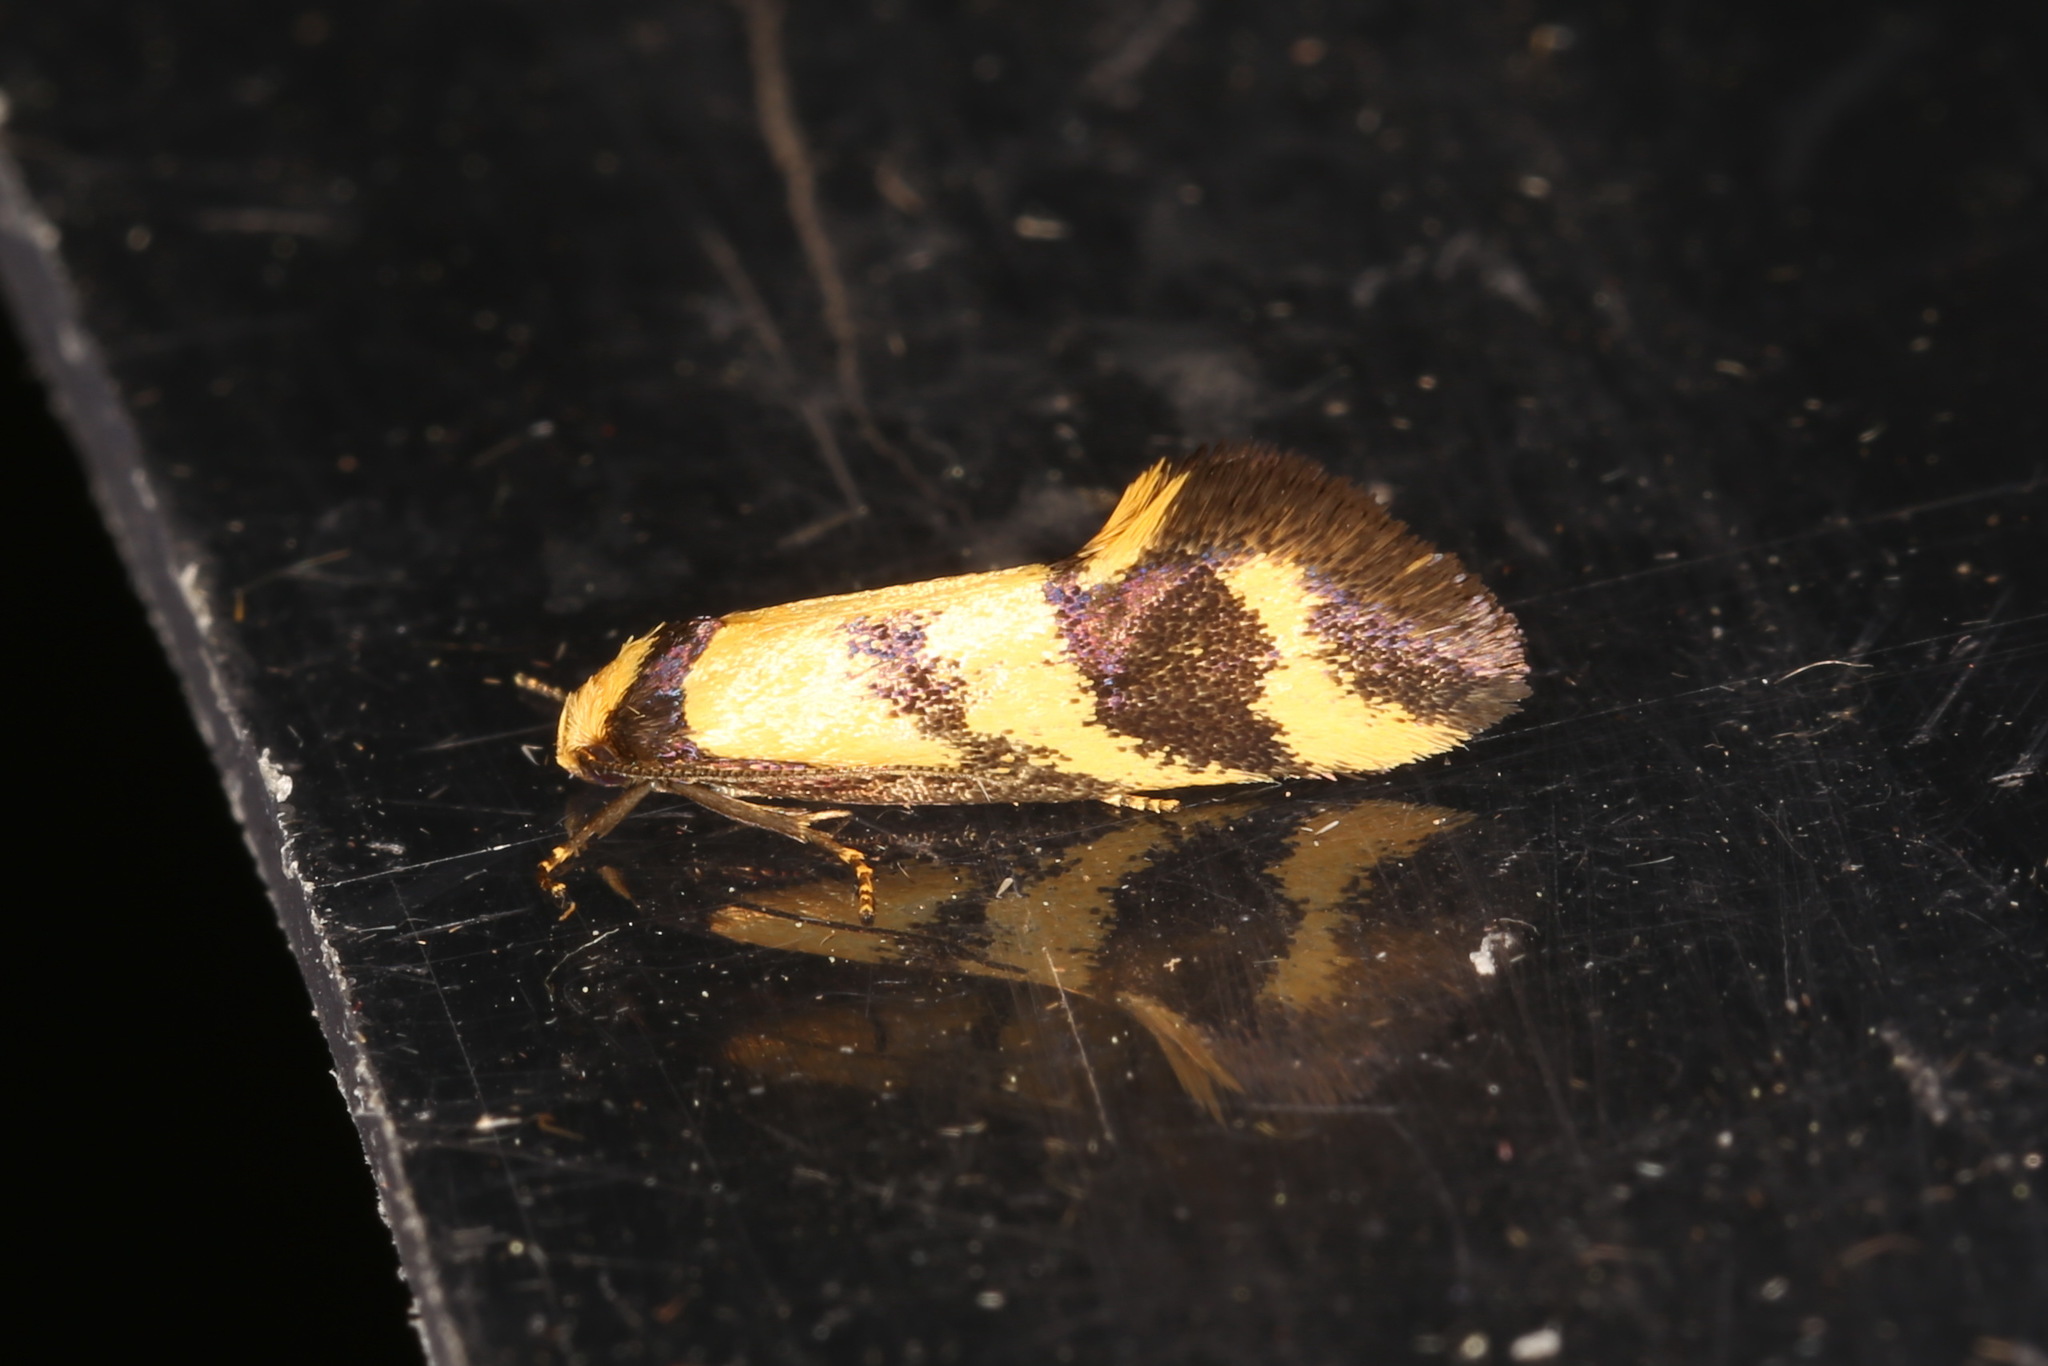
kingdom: Animalia
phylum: Arthropoda
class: Insecta
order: Lepidoptera
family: Oecophoridae
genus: Olbonoma
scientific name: Olbonoma triptycha
